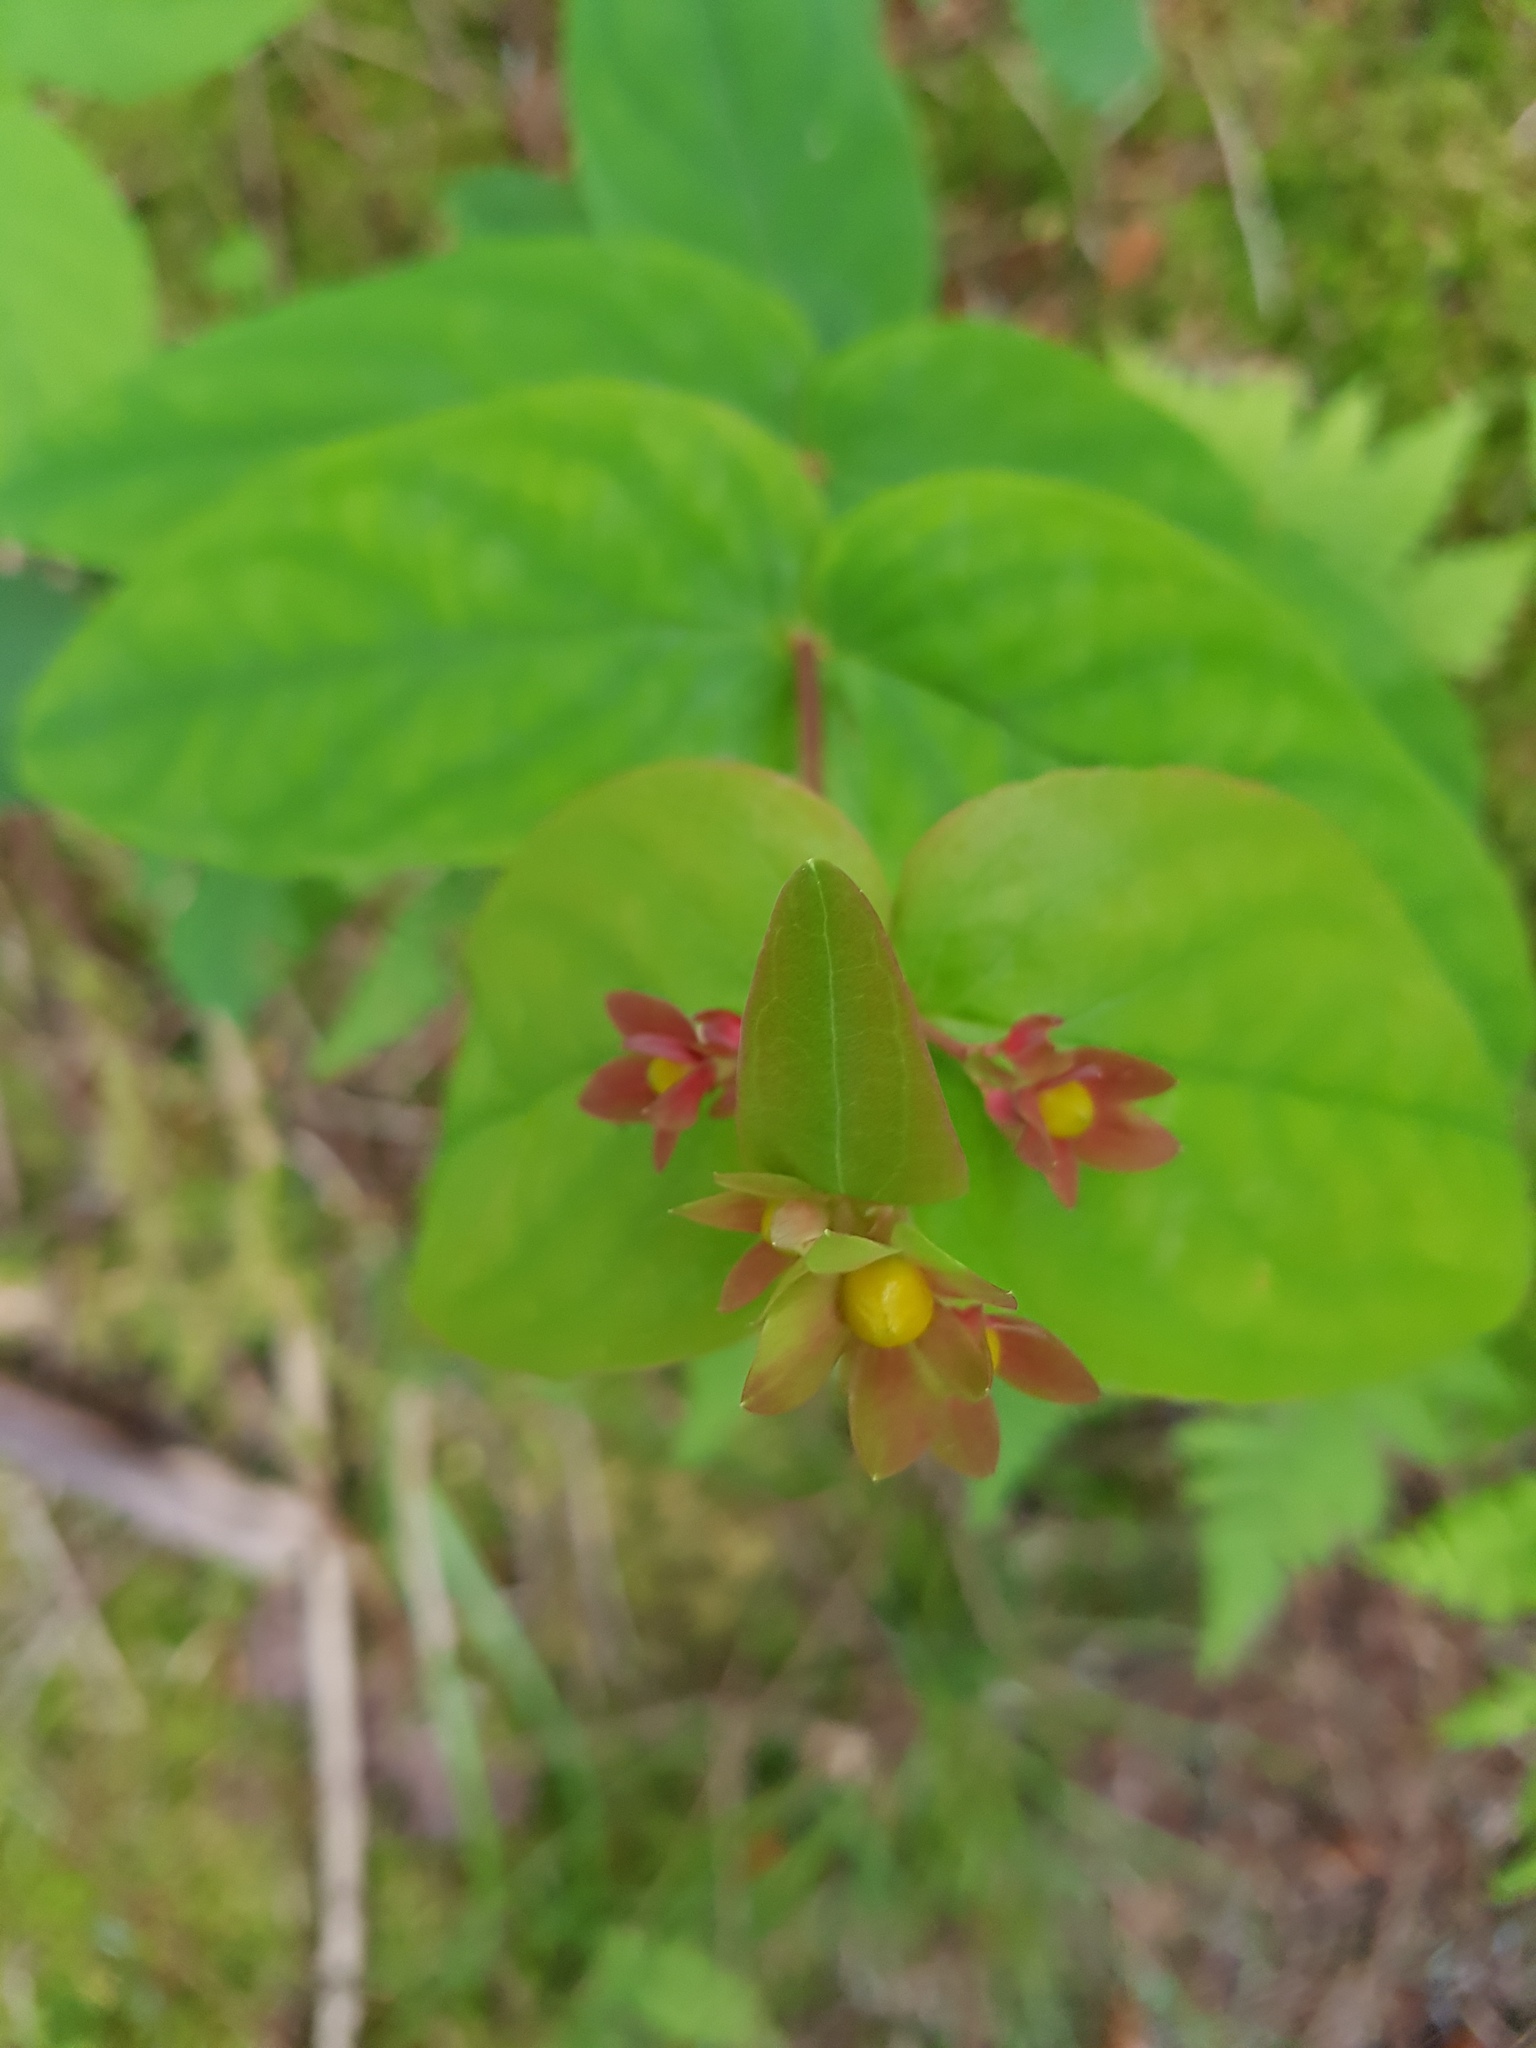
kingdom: Plantae
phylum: Tracheophyta
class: Magnoliopsida
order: Malpighiales
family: Hypericaceae
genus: Hypericum
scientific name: Hypericum androsaemum
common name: Sweet-amber
